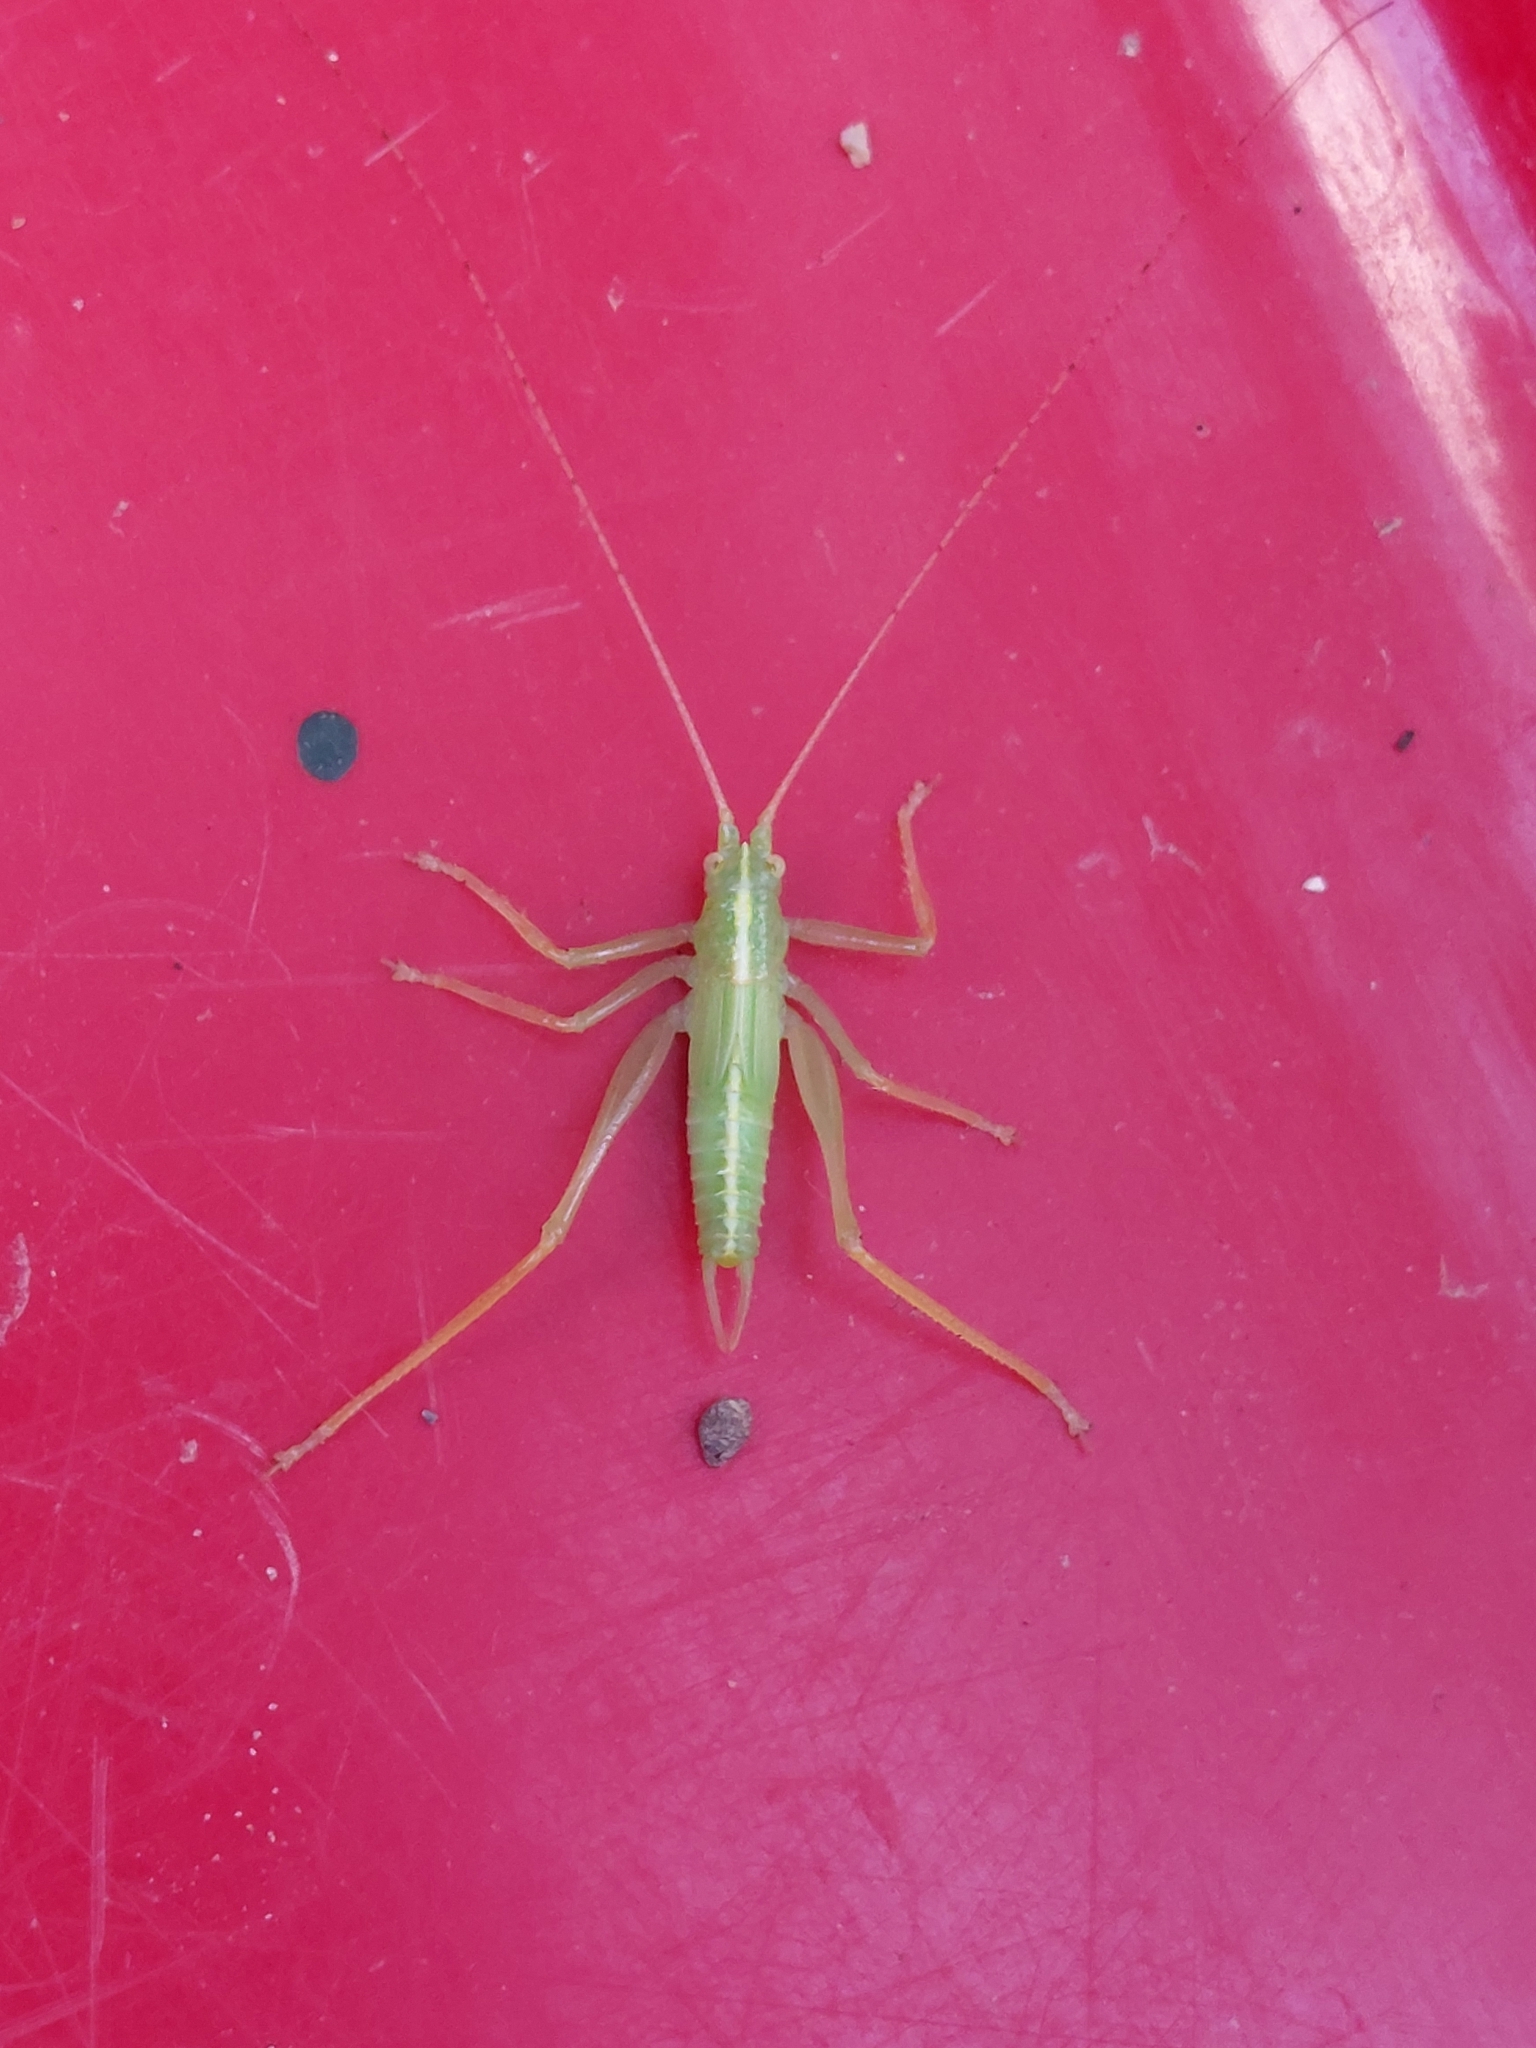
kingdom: Animalia
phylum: Arthropoda
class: Insecta
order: Orthoptera
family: Tettigoniidae
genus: Meconema
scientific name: Meconema thalassinum
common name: Oak bush-cricket
